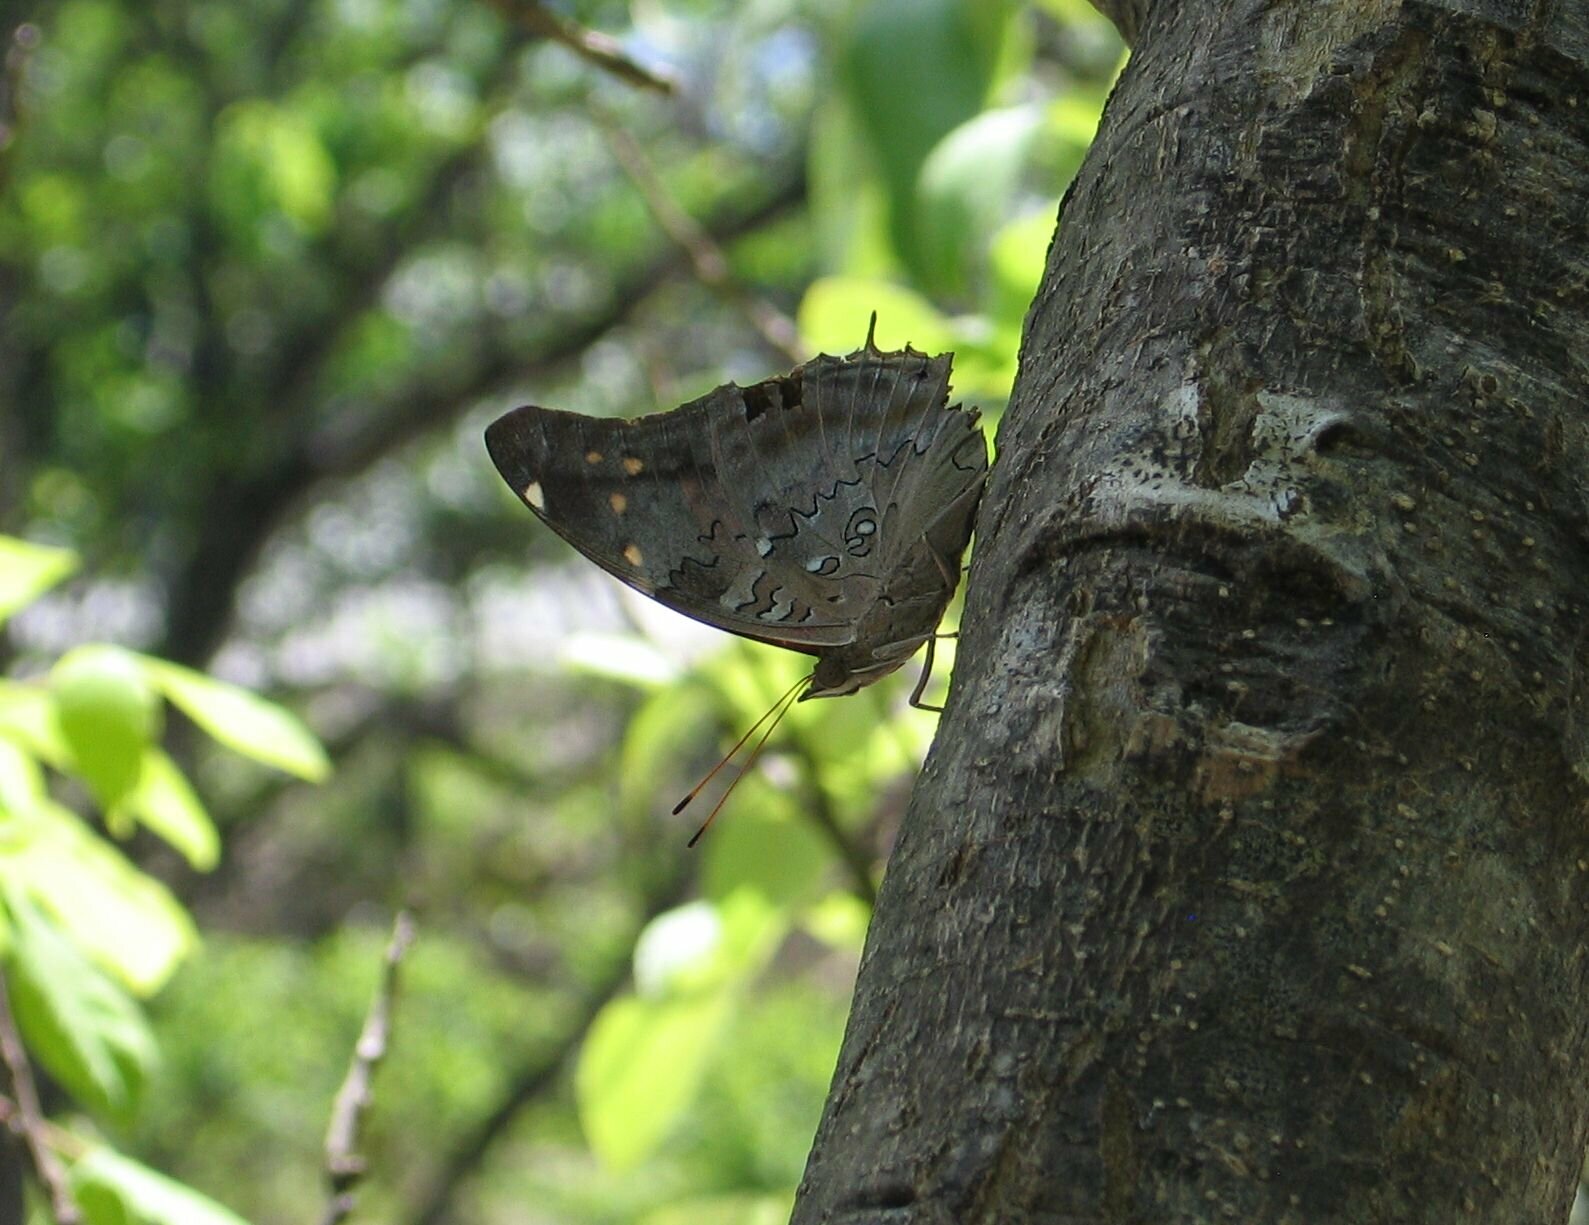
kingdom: Animalia
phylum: Arthropoda
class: Insecta
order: Lepidoptera
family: Nymphalidae
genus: Coea
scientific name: Coea acheronta
